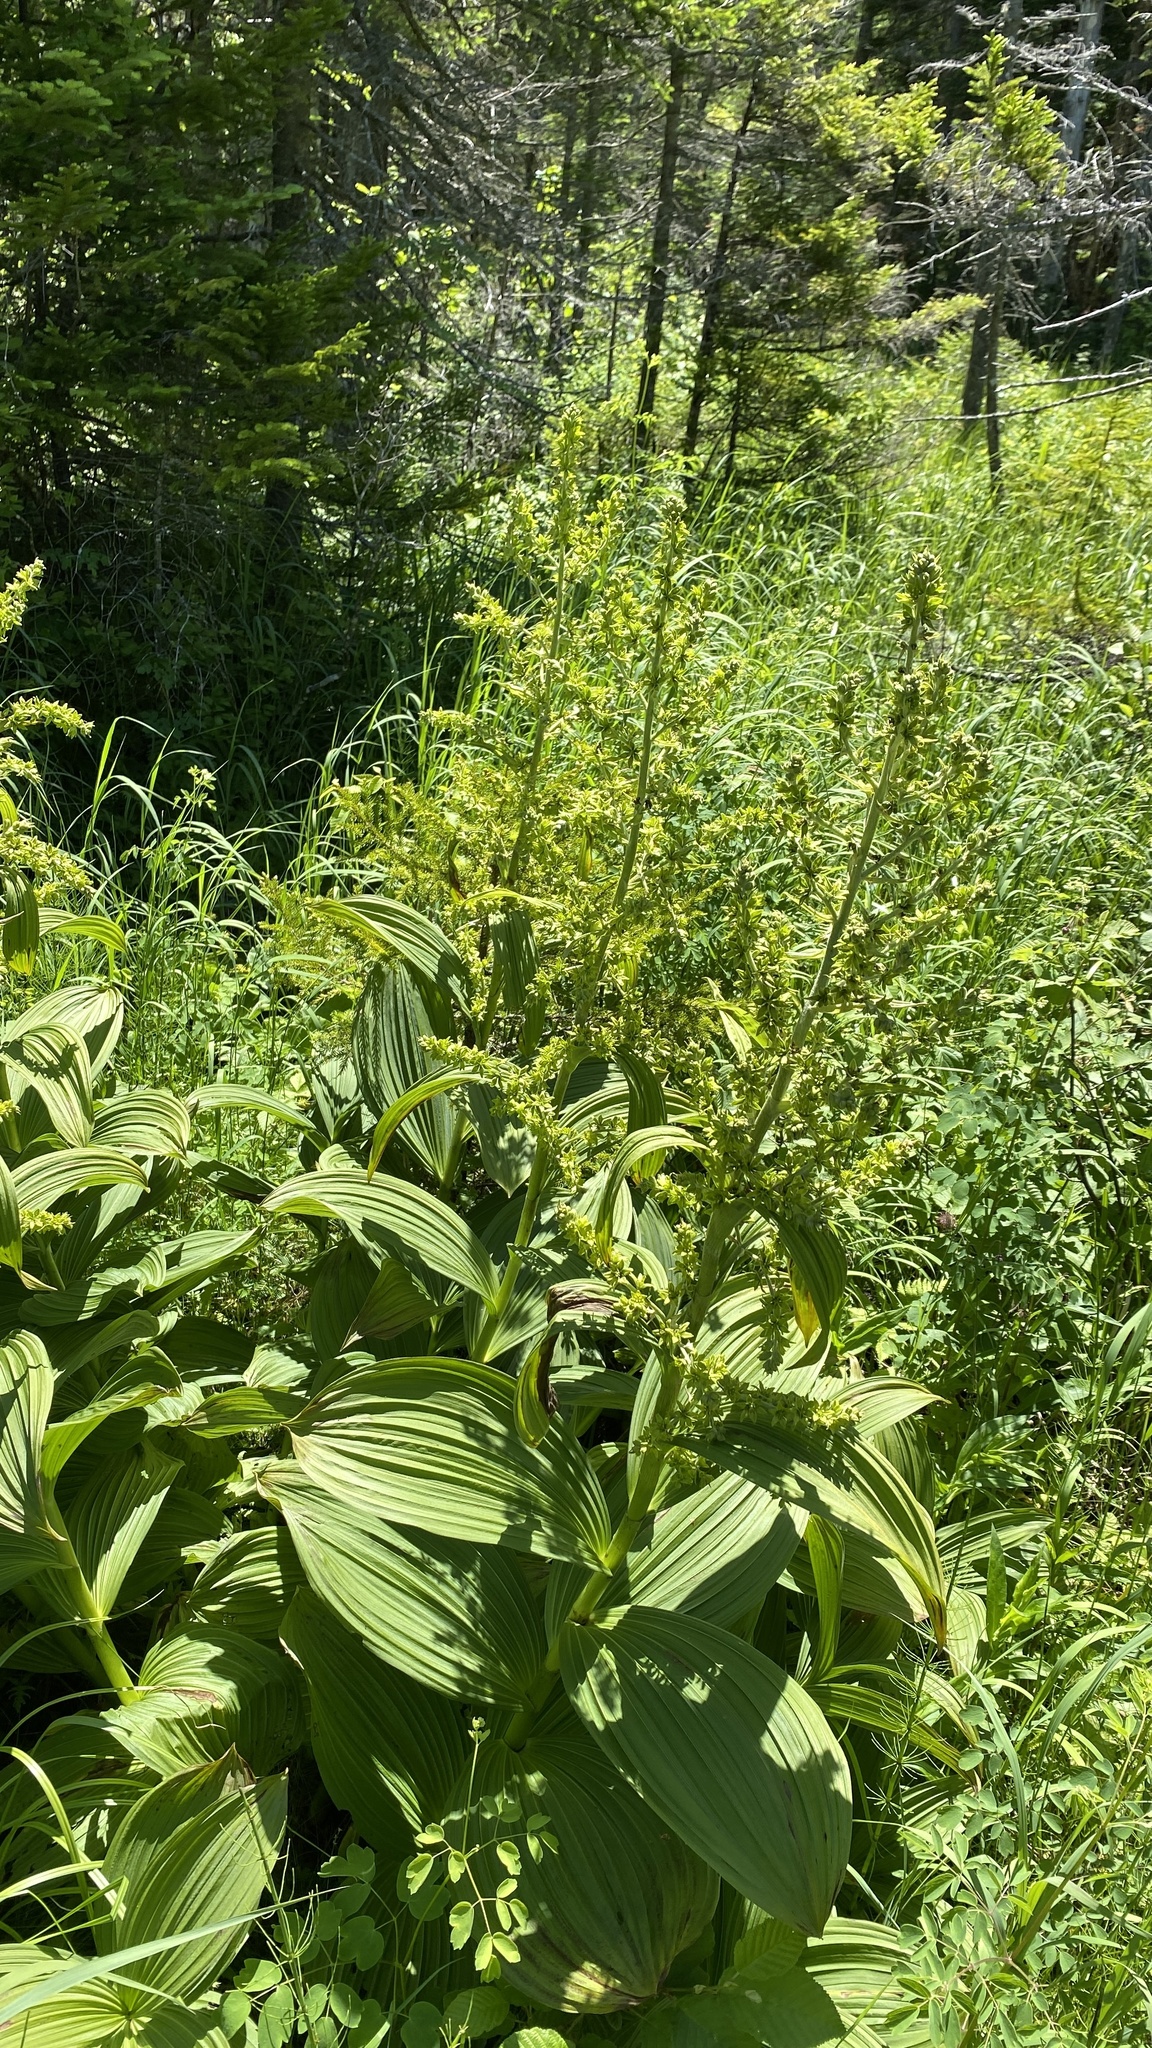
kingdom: Plantae
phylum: Tracheophyta
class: Liliopsida
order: Liliales
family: Melanthiaceae
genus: Veratrum
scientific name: Veratrum viride
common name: American false hellebore
